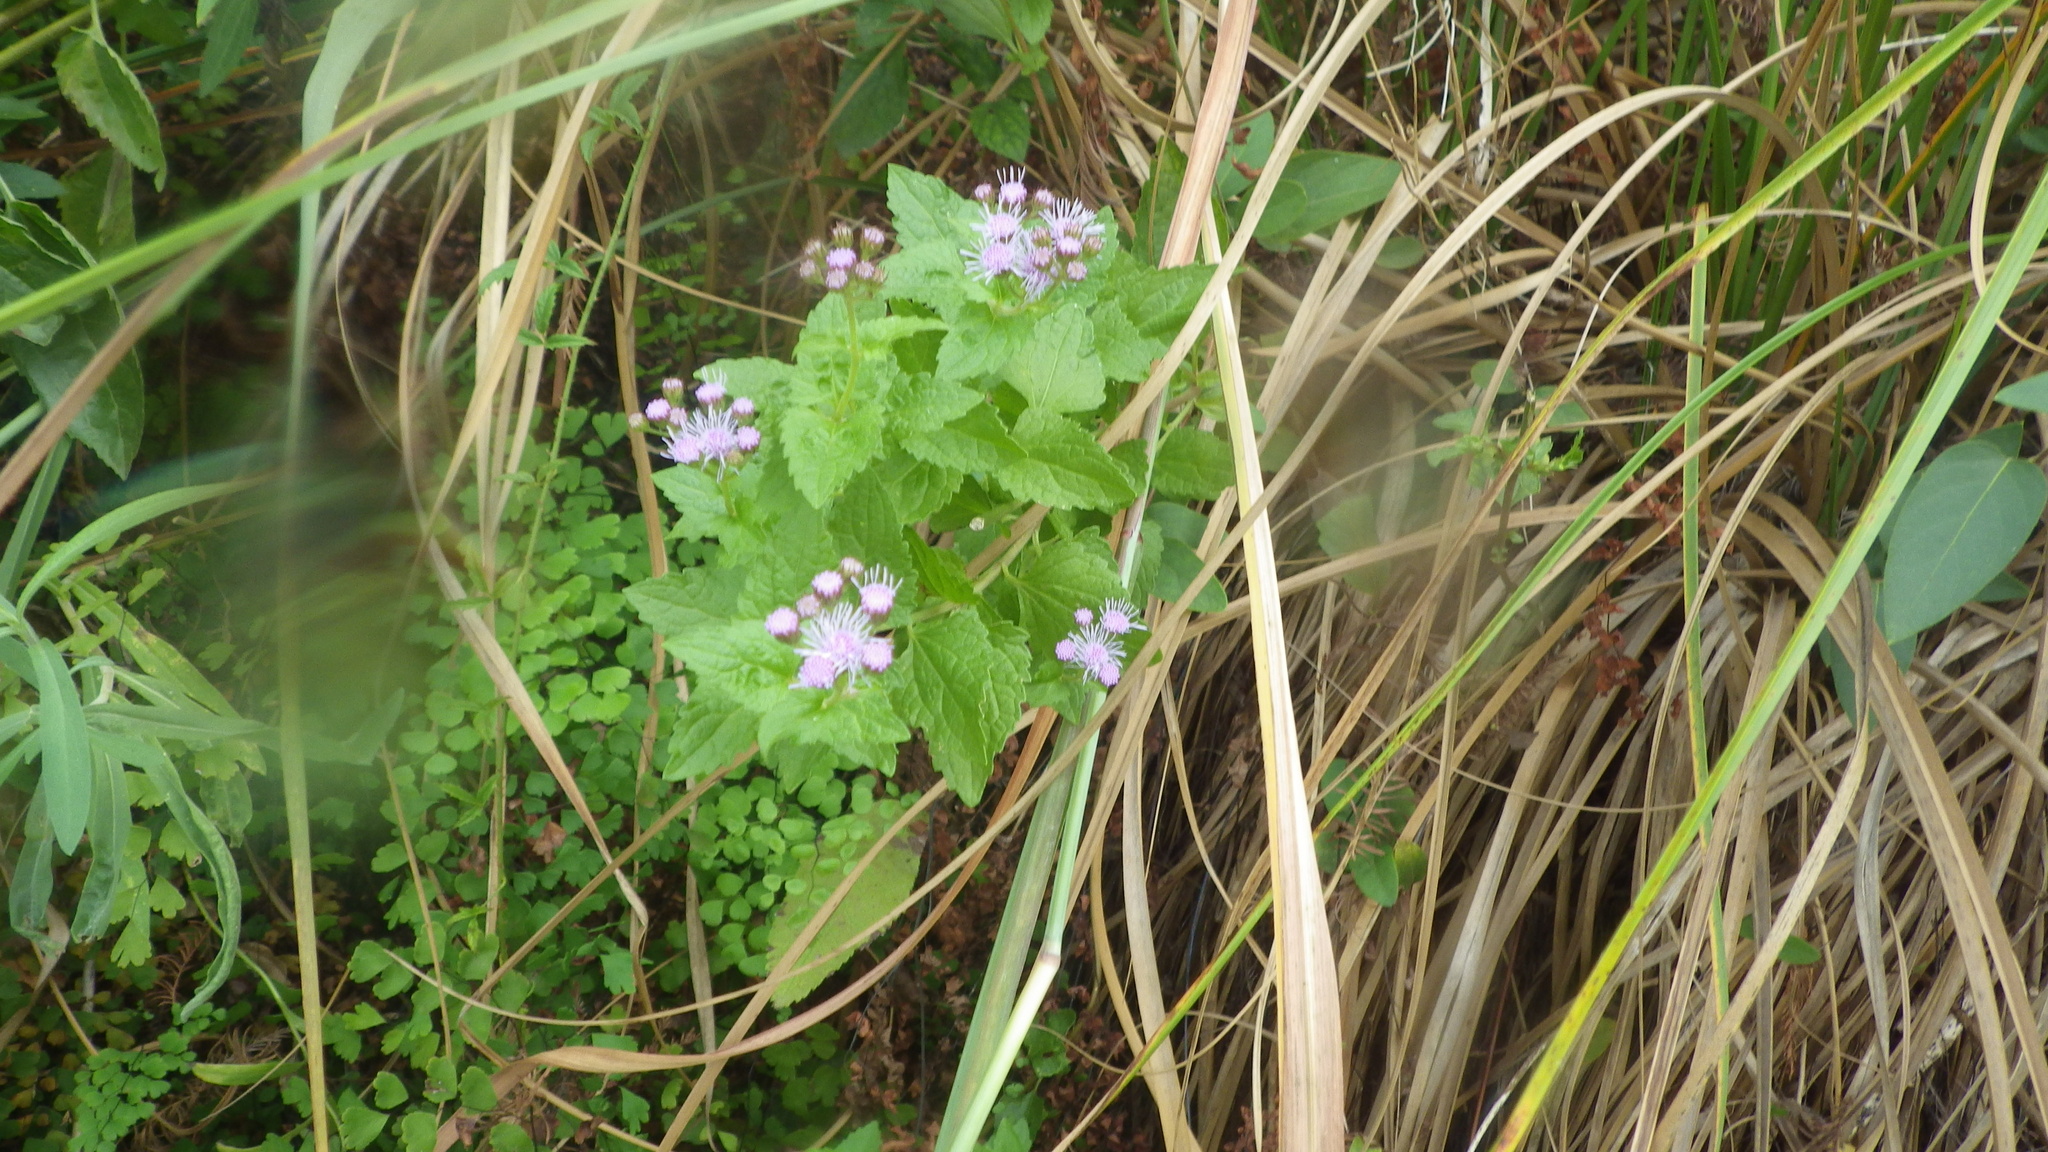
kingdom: Plantae
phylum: Tracheophyta
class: Magnoliopsida
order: Asterales
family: Asteraceae
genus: Conoclinium
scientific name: Conoclinium coelestinum
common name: Blue mistflower
